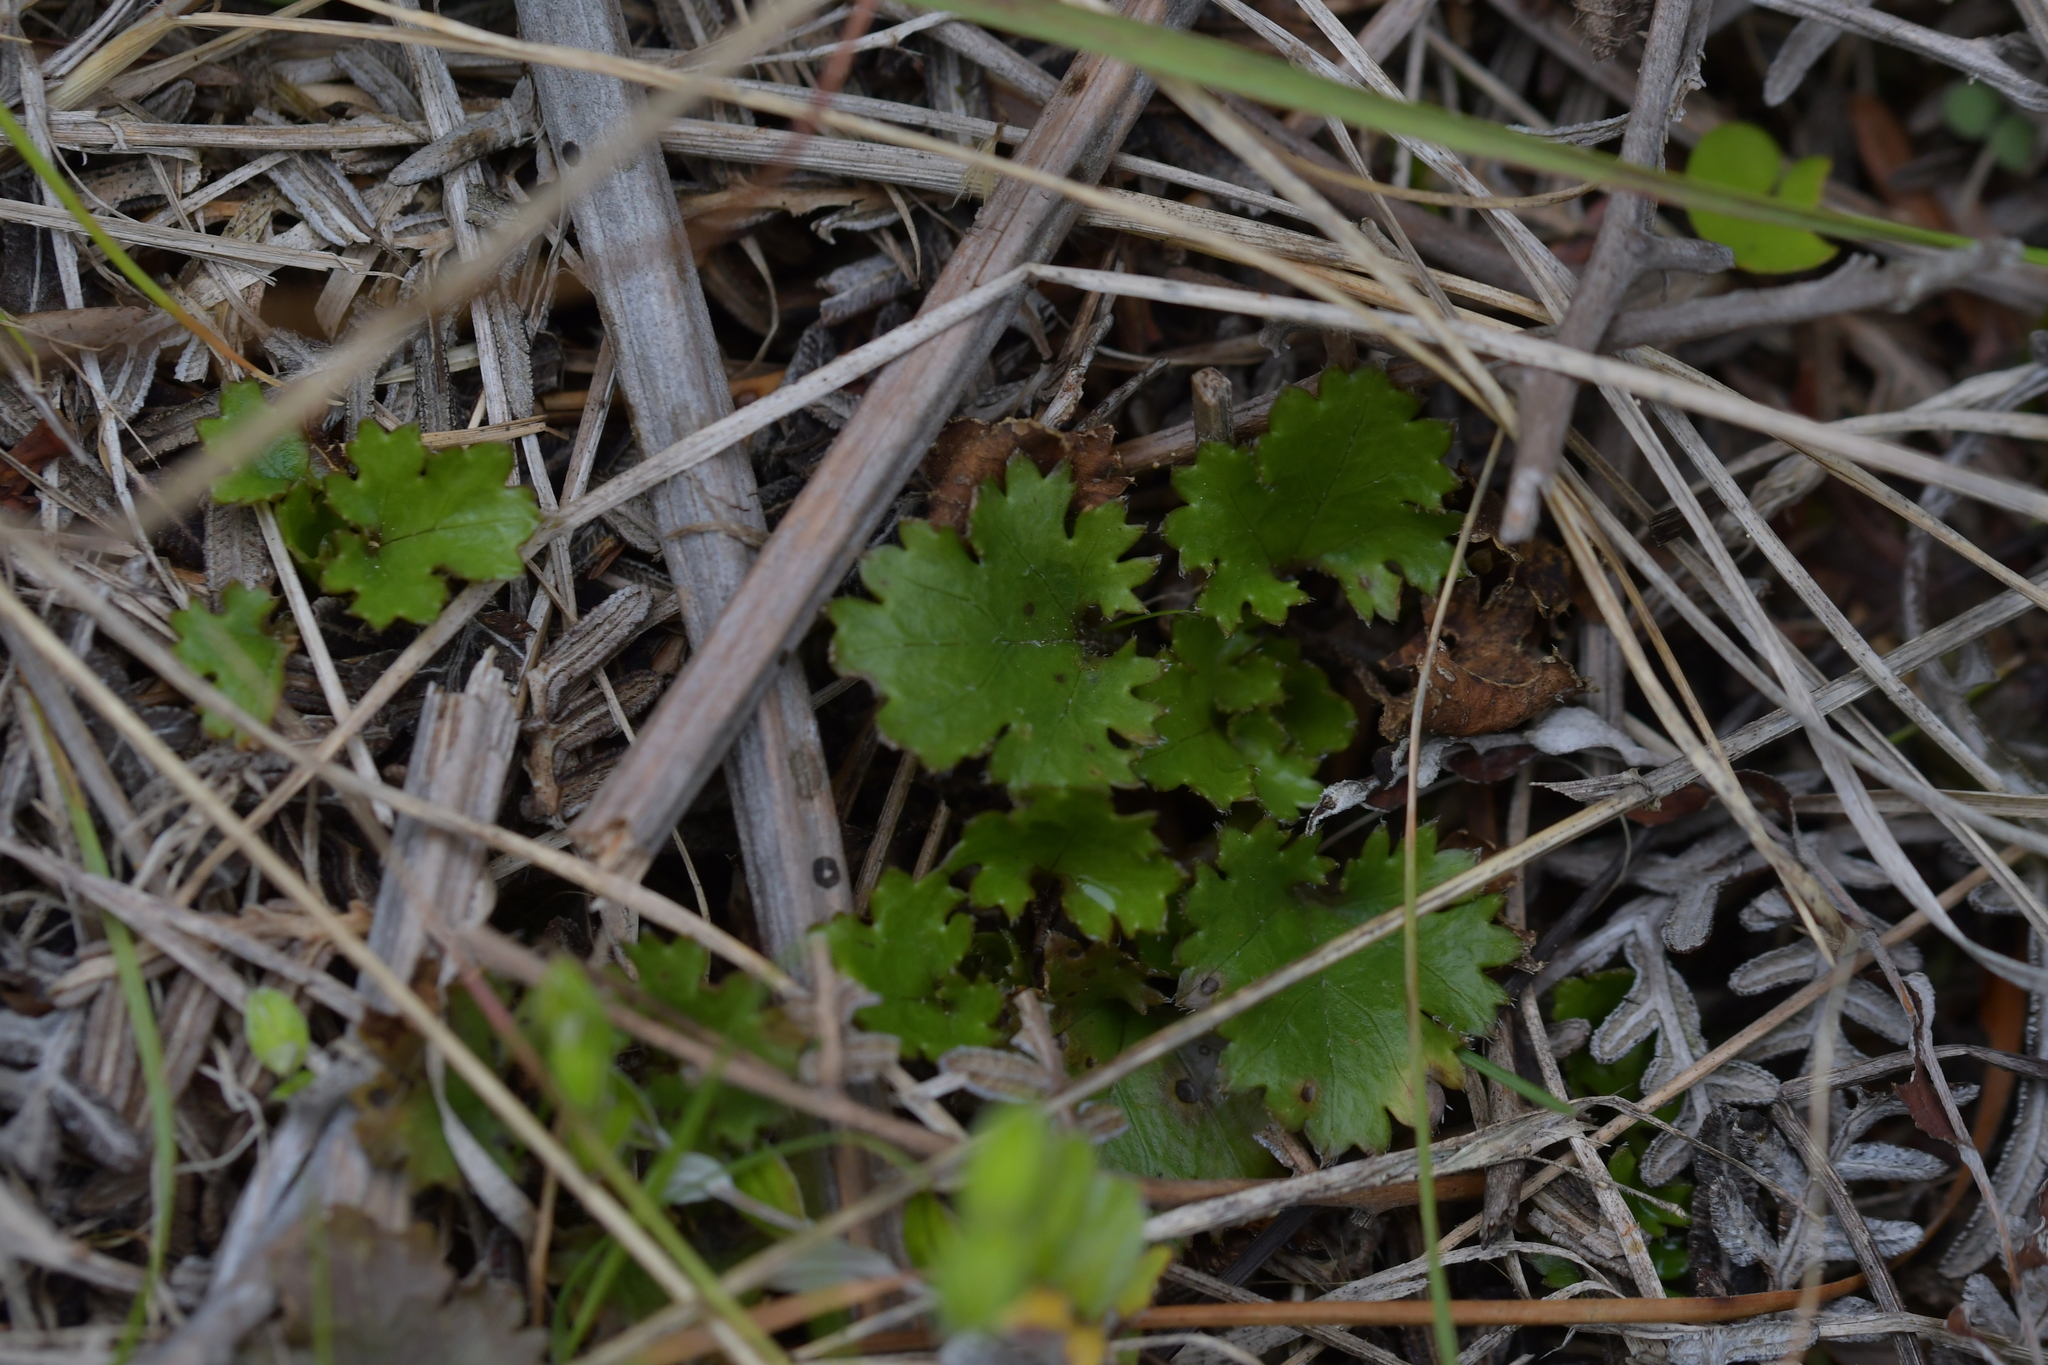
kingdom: Plantae
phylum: Tracheophyta
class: Magnoliopsida
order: Gunnerales
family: Gunneraceae
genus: Gunnera
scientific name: Gunnera monoica
